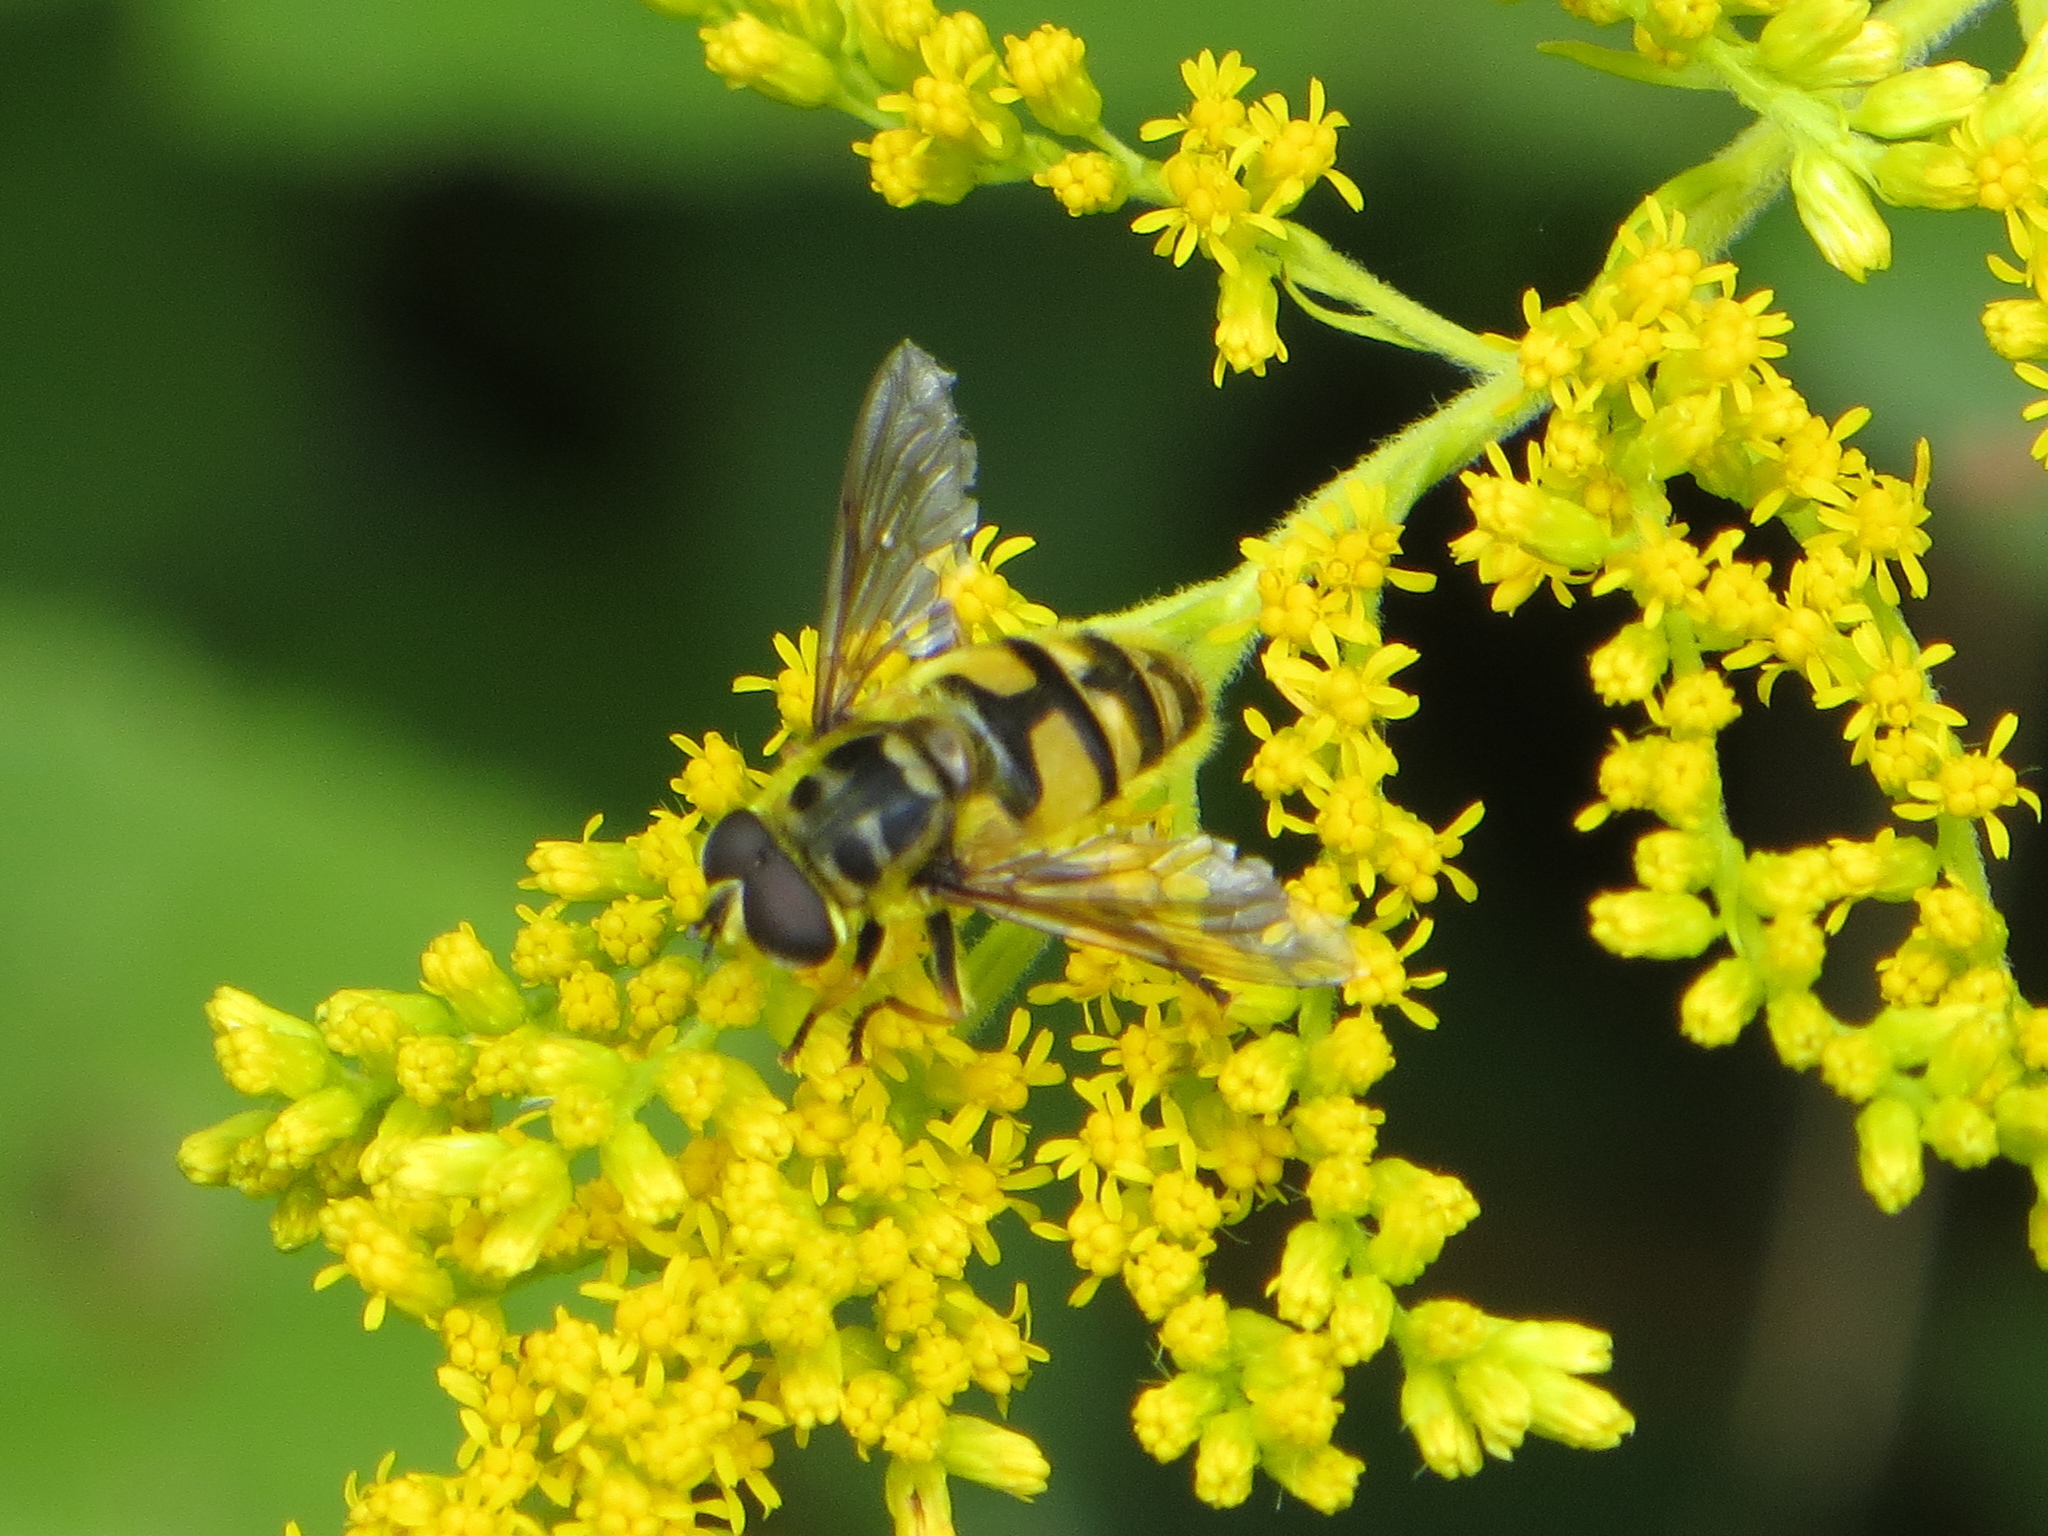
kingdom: Animalia
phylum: Arthropoda
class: Insecta
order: Diptera
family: Syrphidae
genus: Myathropa
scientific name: Myathropa florea
